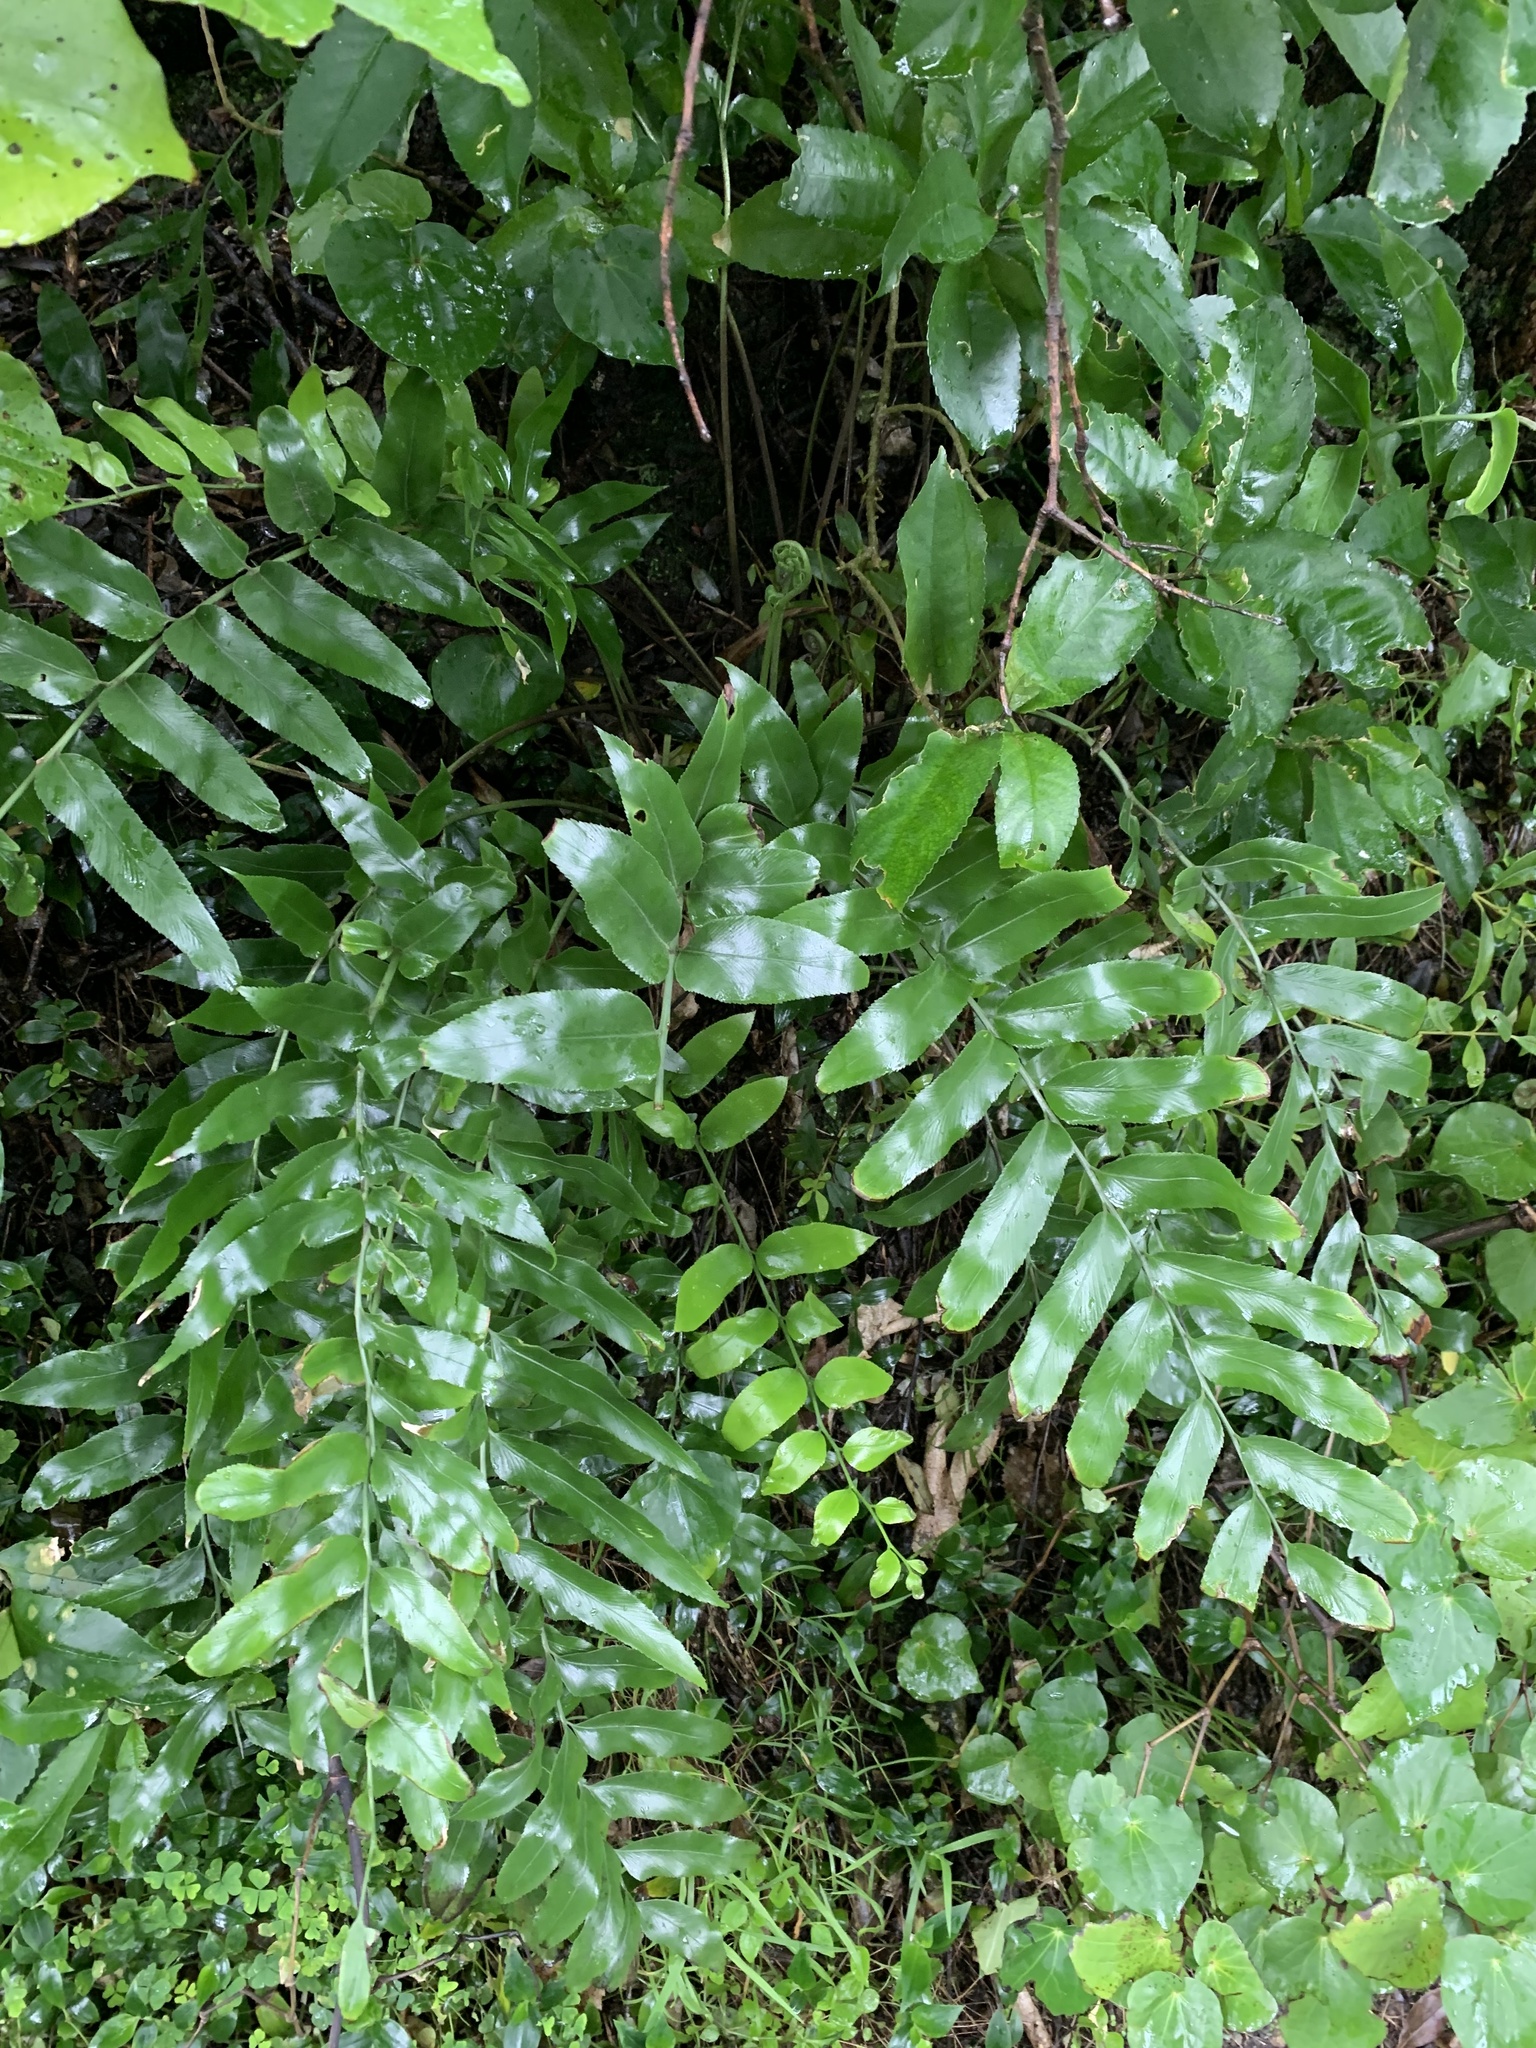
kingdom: Plantae
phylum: Tracheophyta
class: Polypodiopsida
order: Polypodiales
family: Aspleniaceae
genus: Asplenium
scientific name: Asplenium oblongifolium
